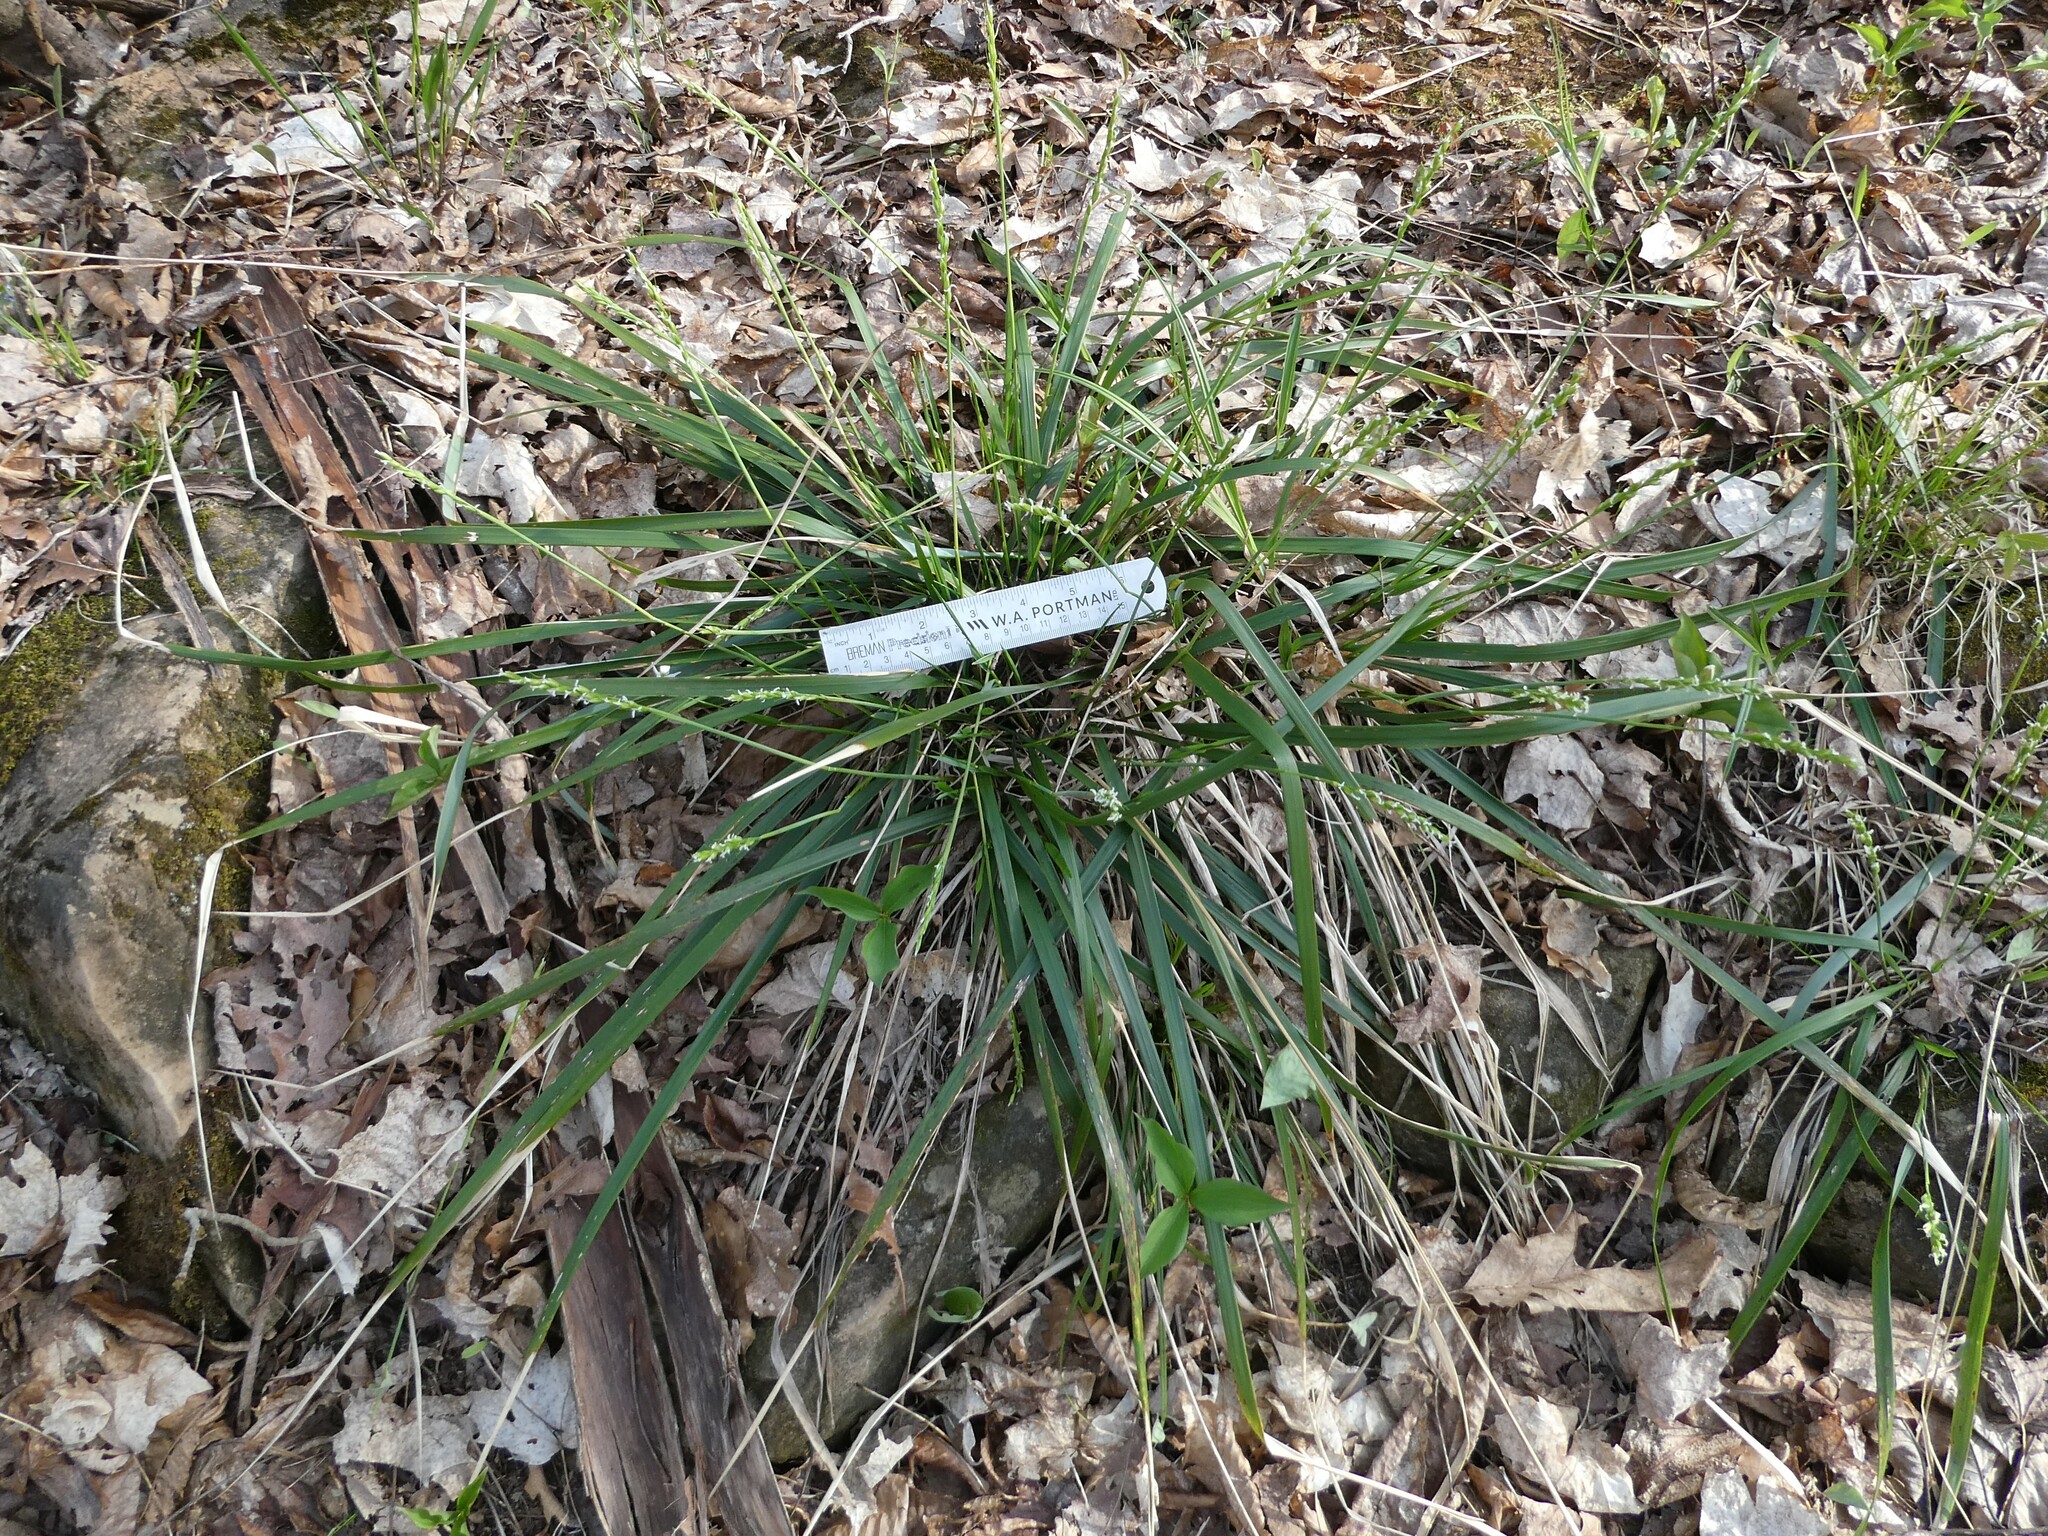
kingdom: Plantae
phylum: Tracheophyta
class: Liliopsida
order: Poales
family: Poaceae
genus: Oryzopsis
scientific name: Oryzopsis asperifolia
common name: Rough-leaved mountain rice
